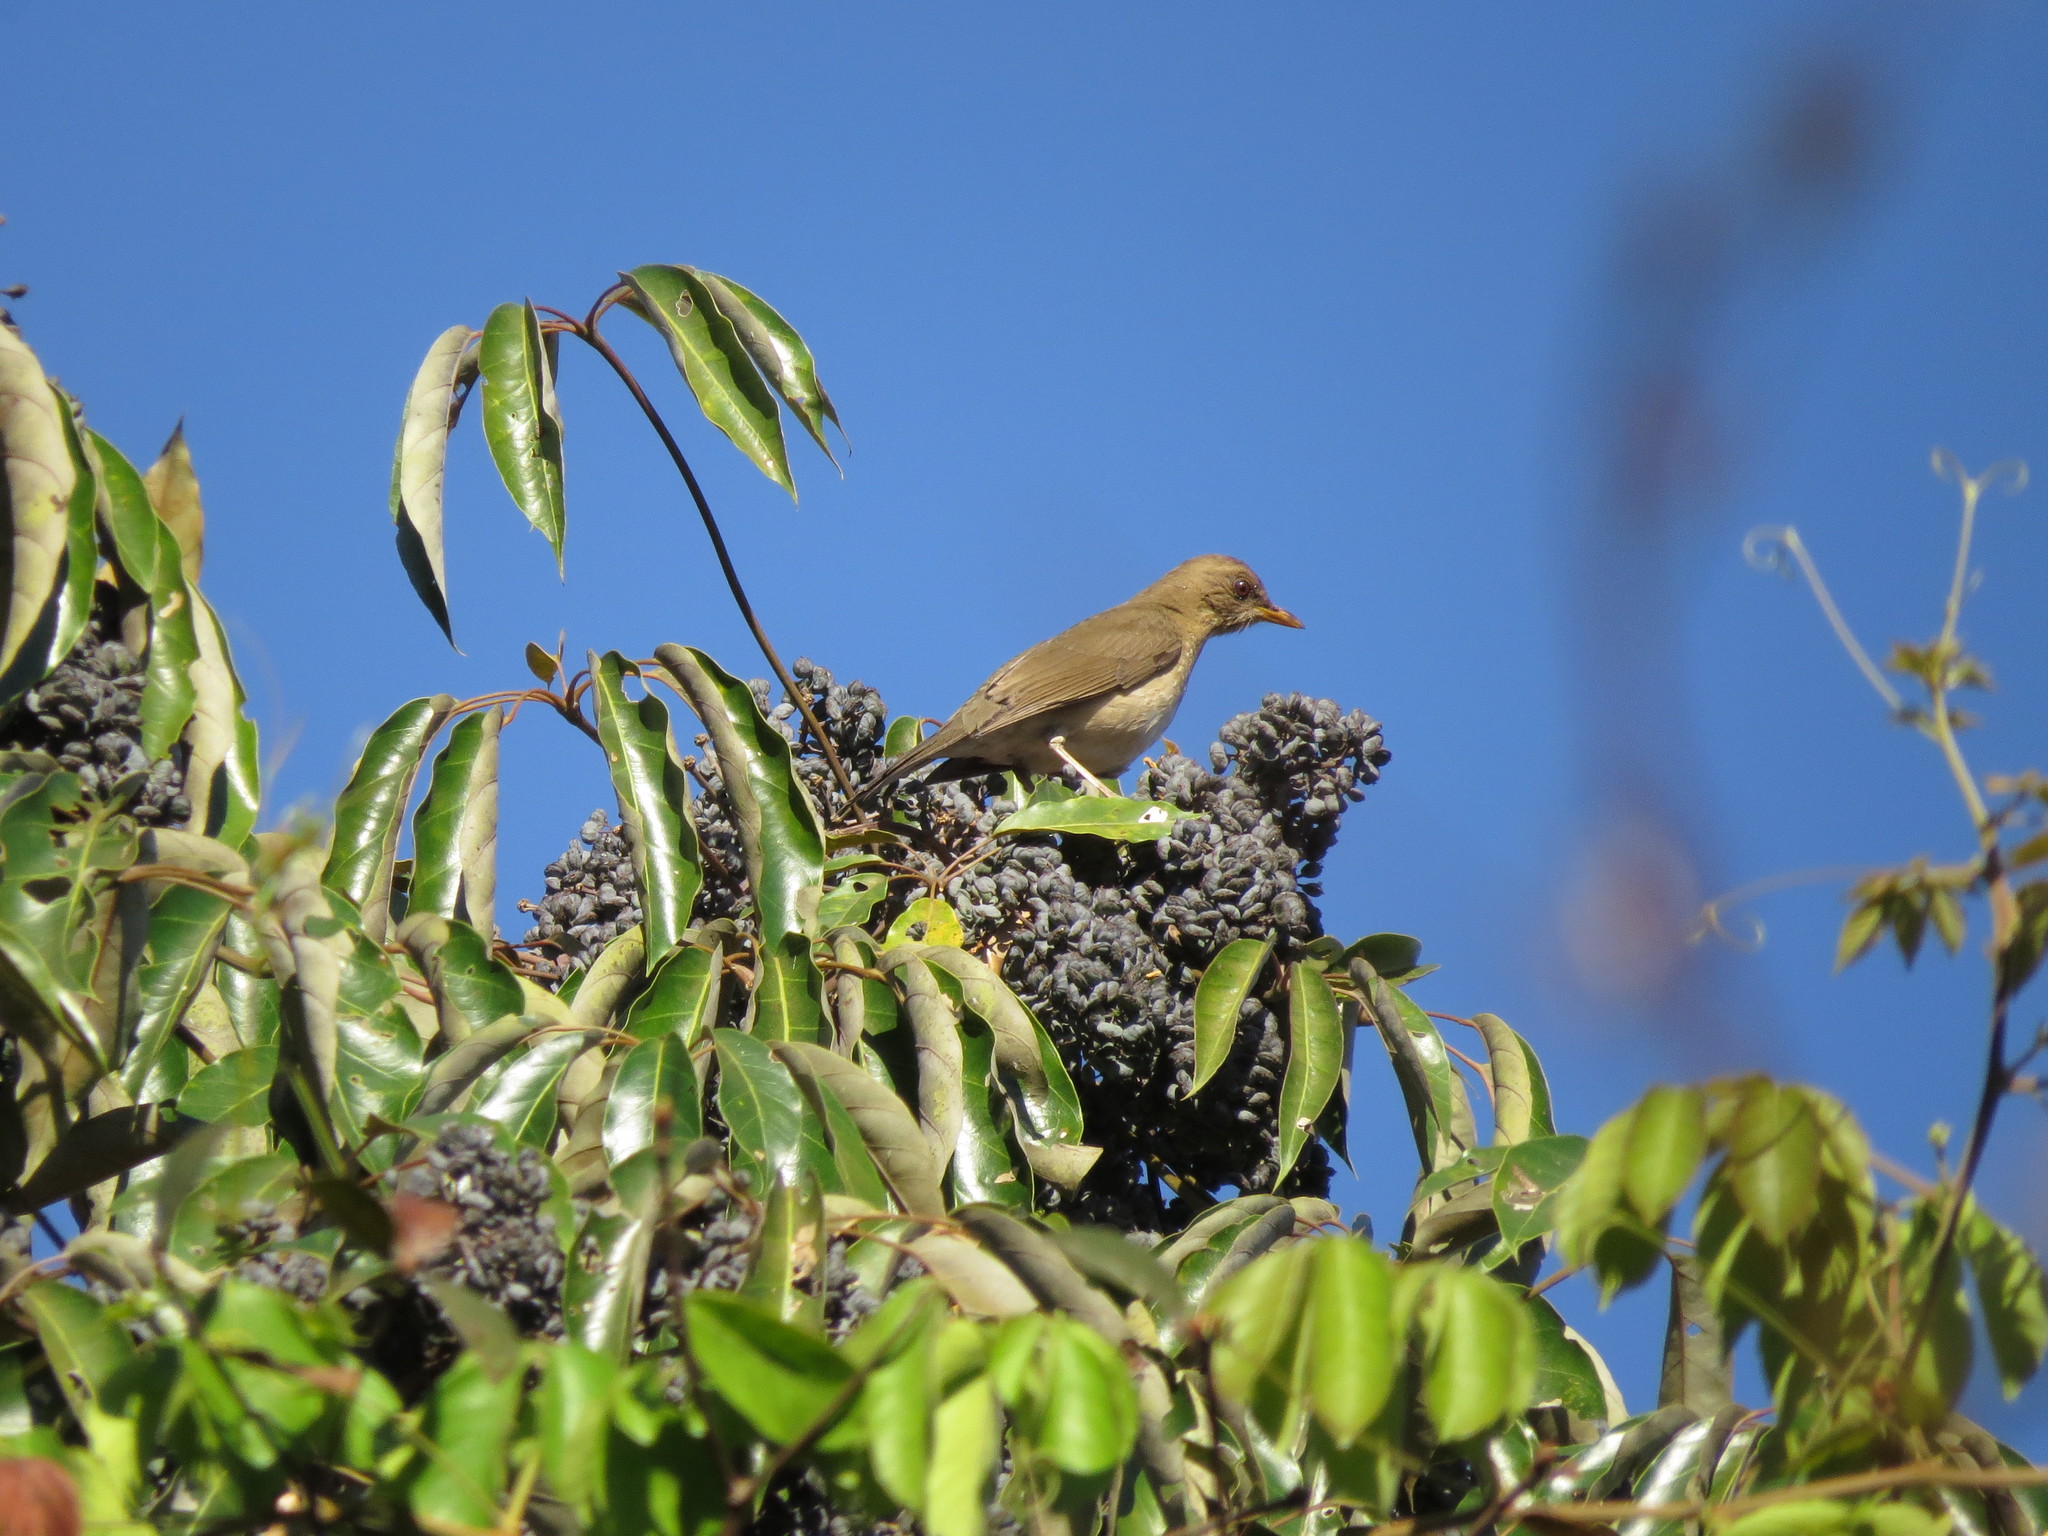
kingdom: Animalia
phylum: Chordata
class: Aves
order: Passeriformes
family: Turdidae
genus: Turdus
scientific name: Turdus amaurochalinus
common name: Creamy-bellied thrush
